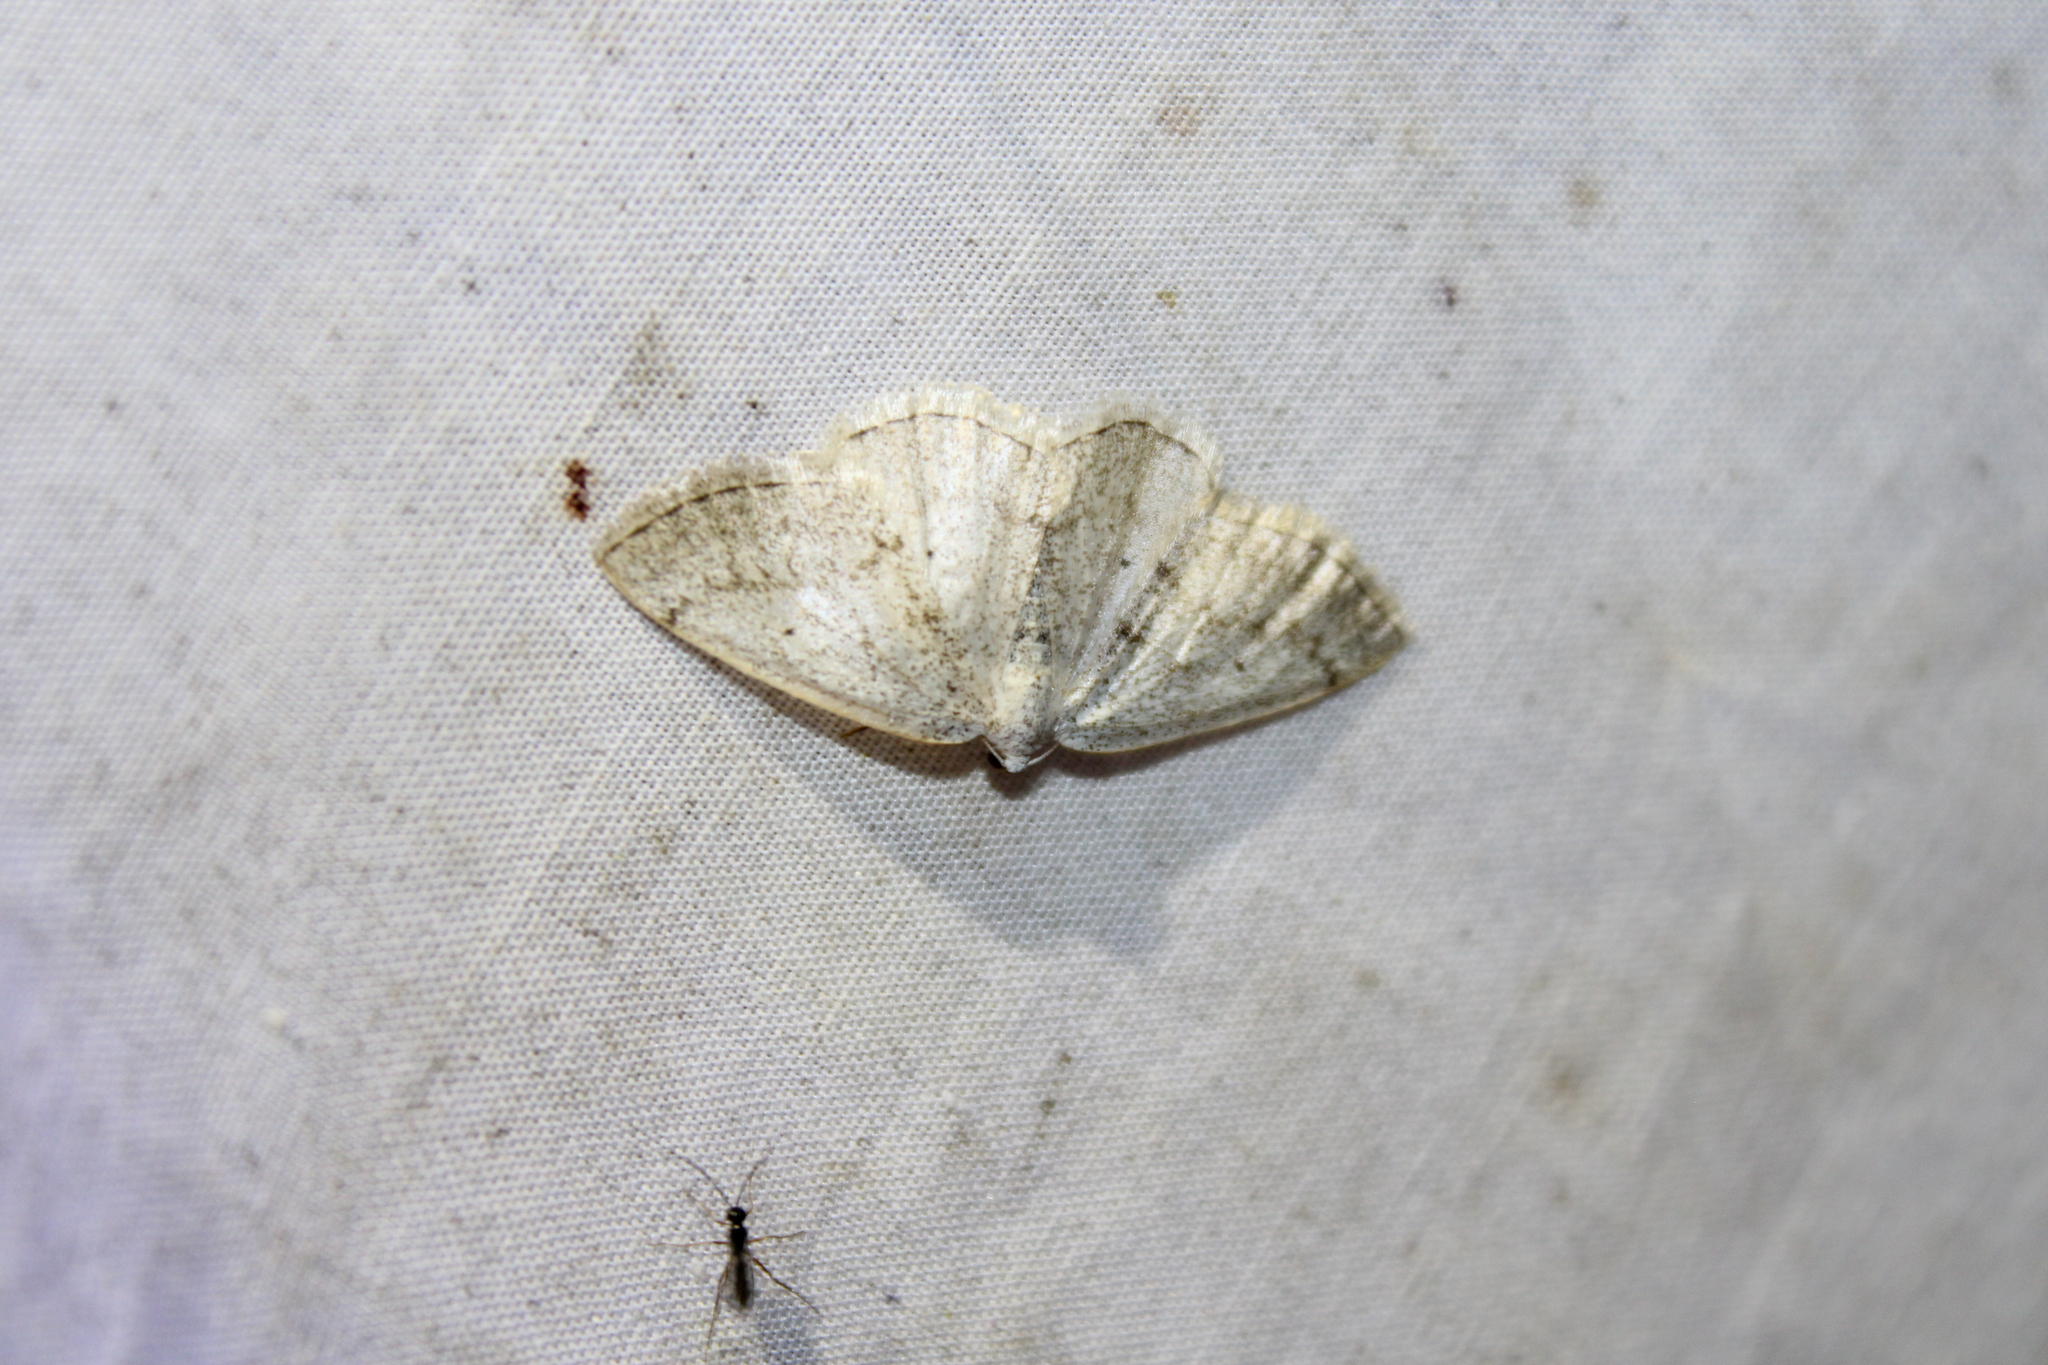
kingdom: Animalia
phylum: Arthropoda
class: Insecta
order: Lepidoptera
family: Geometridae
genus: Lomographa
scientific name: Lomographa glomeraria
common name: Gray spring moth
